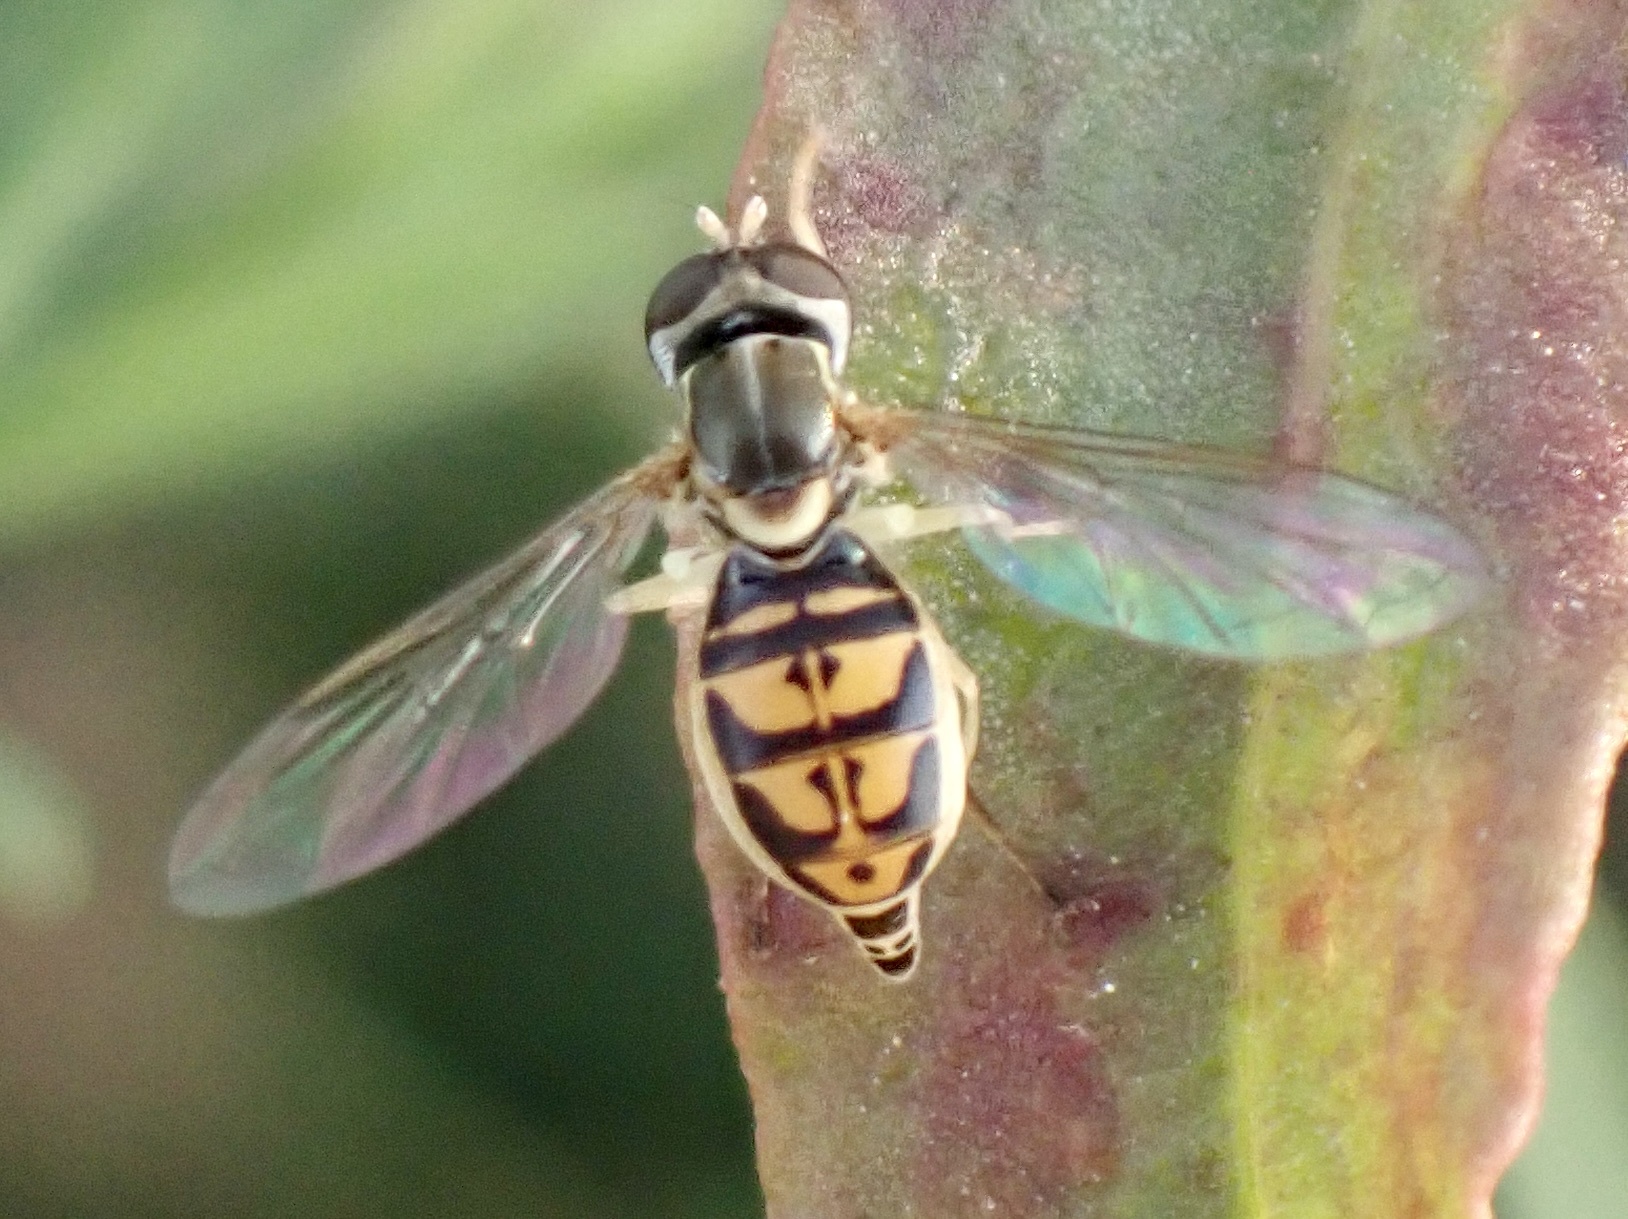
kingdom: Animalia
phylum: Arthropoda
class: Insecta
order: Diptera
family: Syrphidae
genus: Toxomerus
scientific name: Toxomerus marginatus
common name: Syrphid fly
